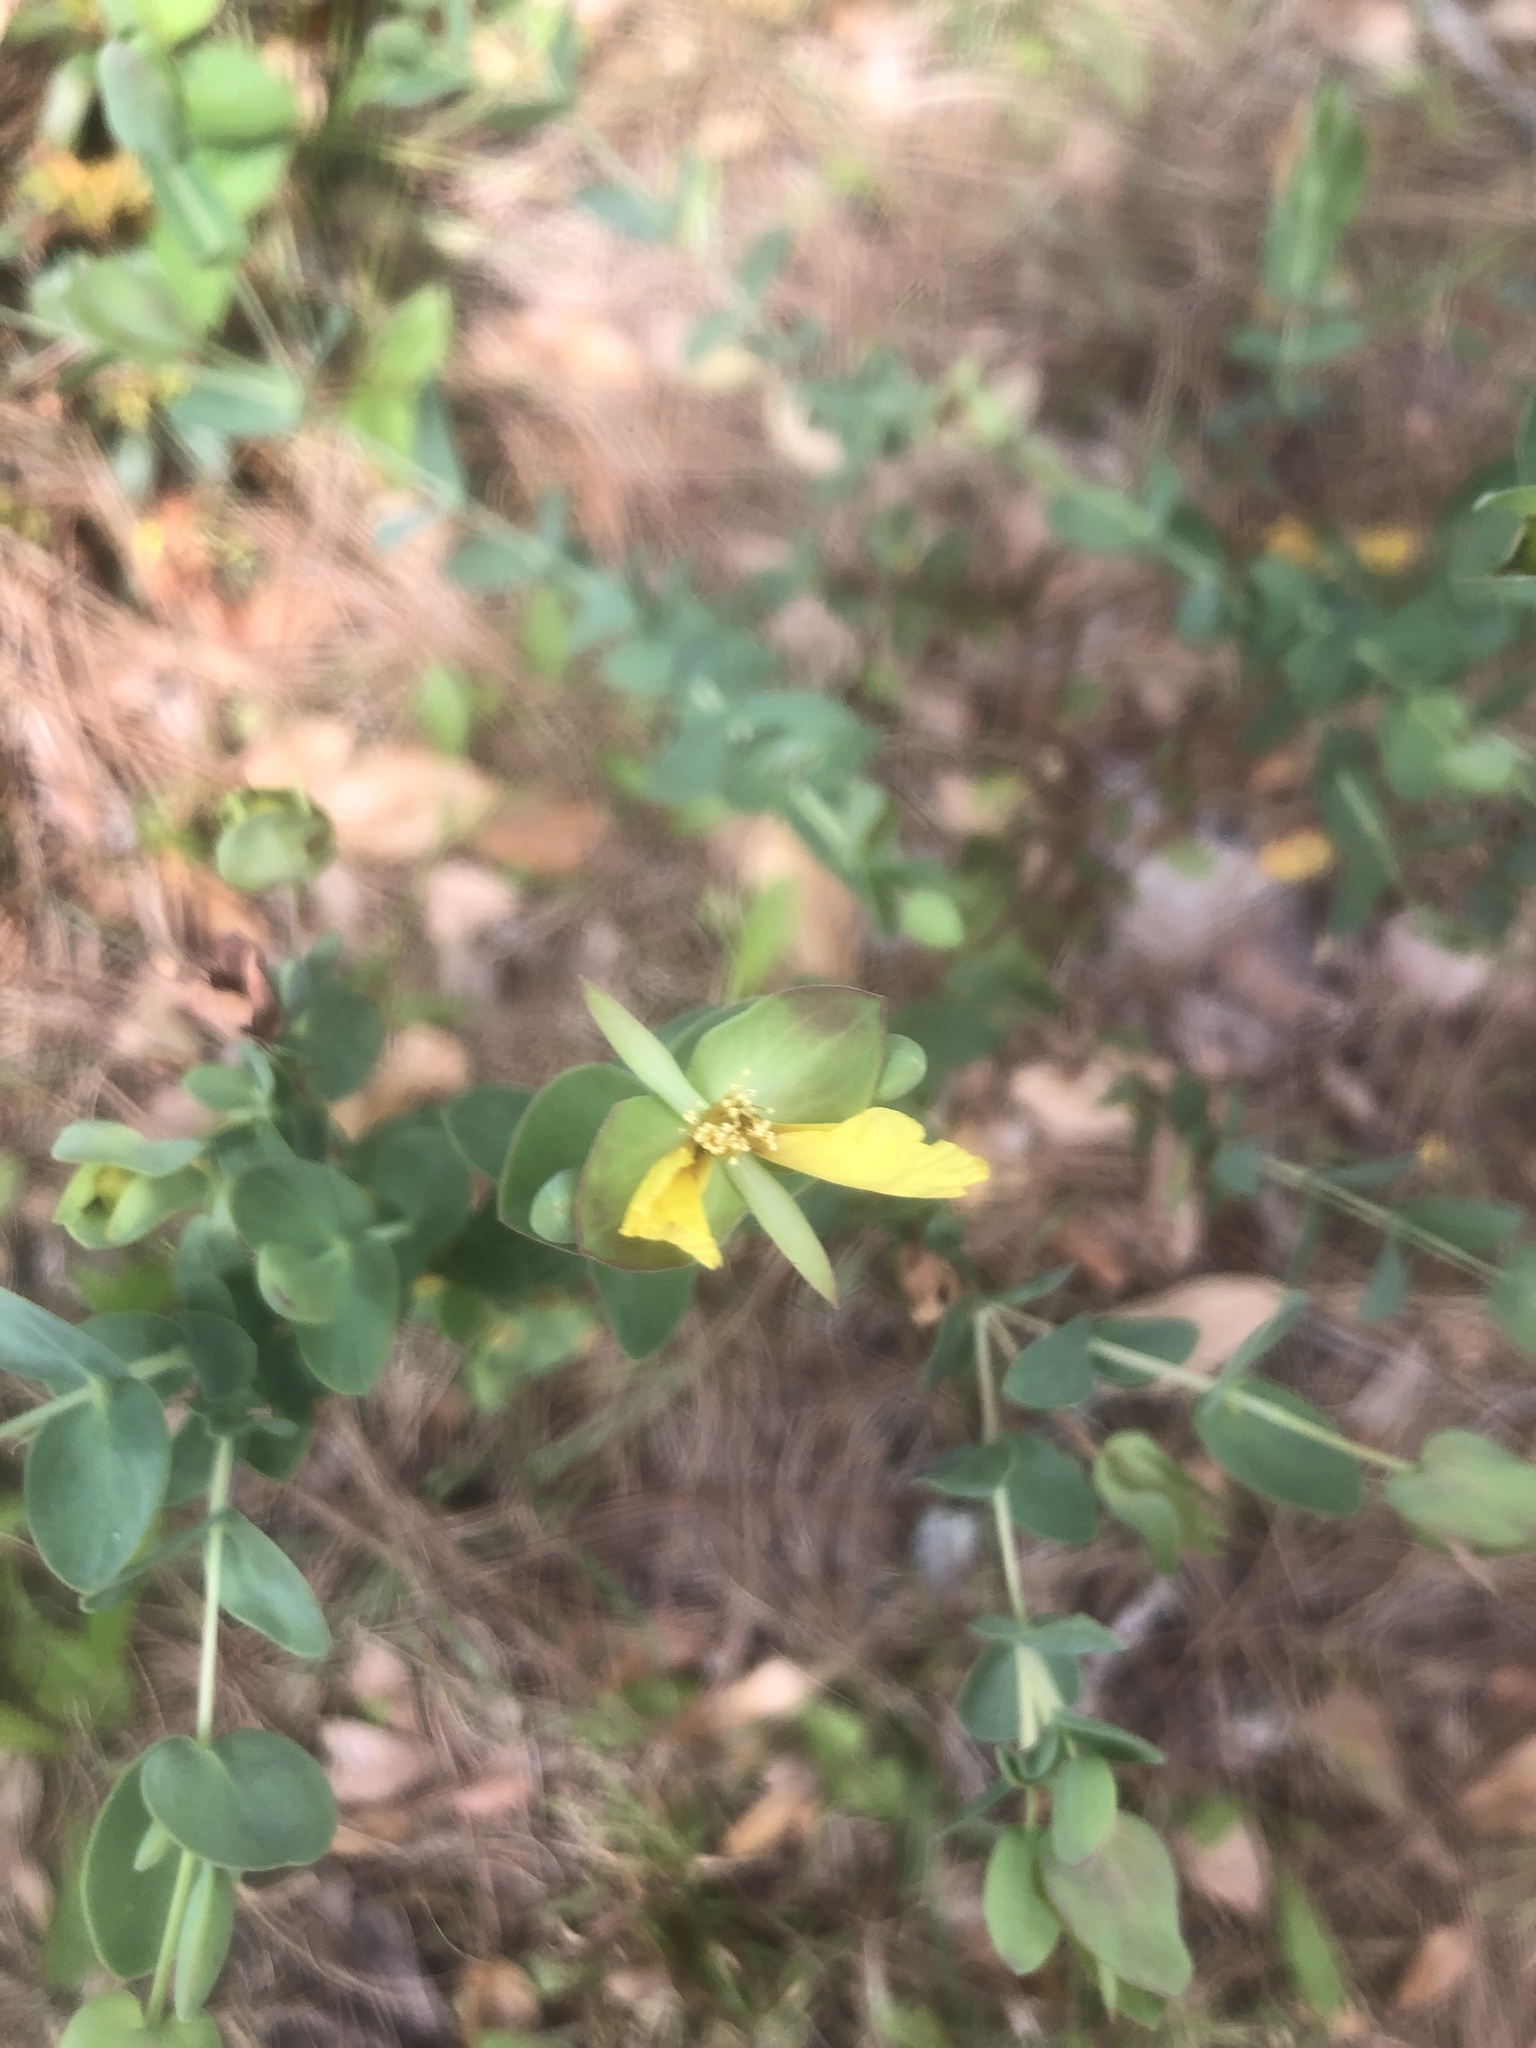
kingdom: Plantae
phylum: Tracheophyta
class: Magnoliopsida
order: Malpighiales
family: Hypericaceae
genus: Hypericum
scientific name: Hypericum tetrapetalum
